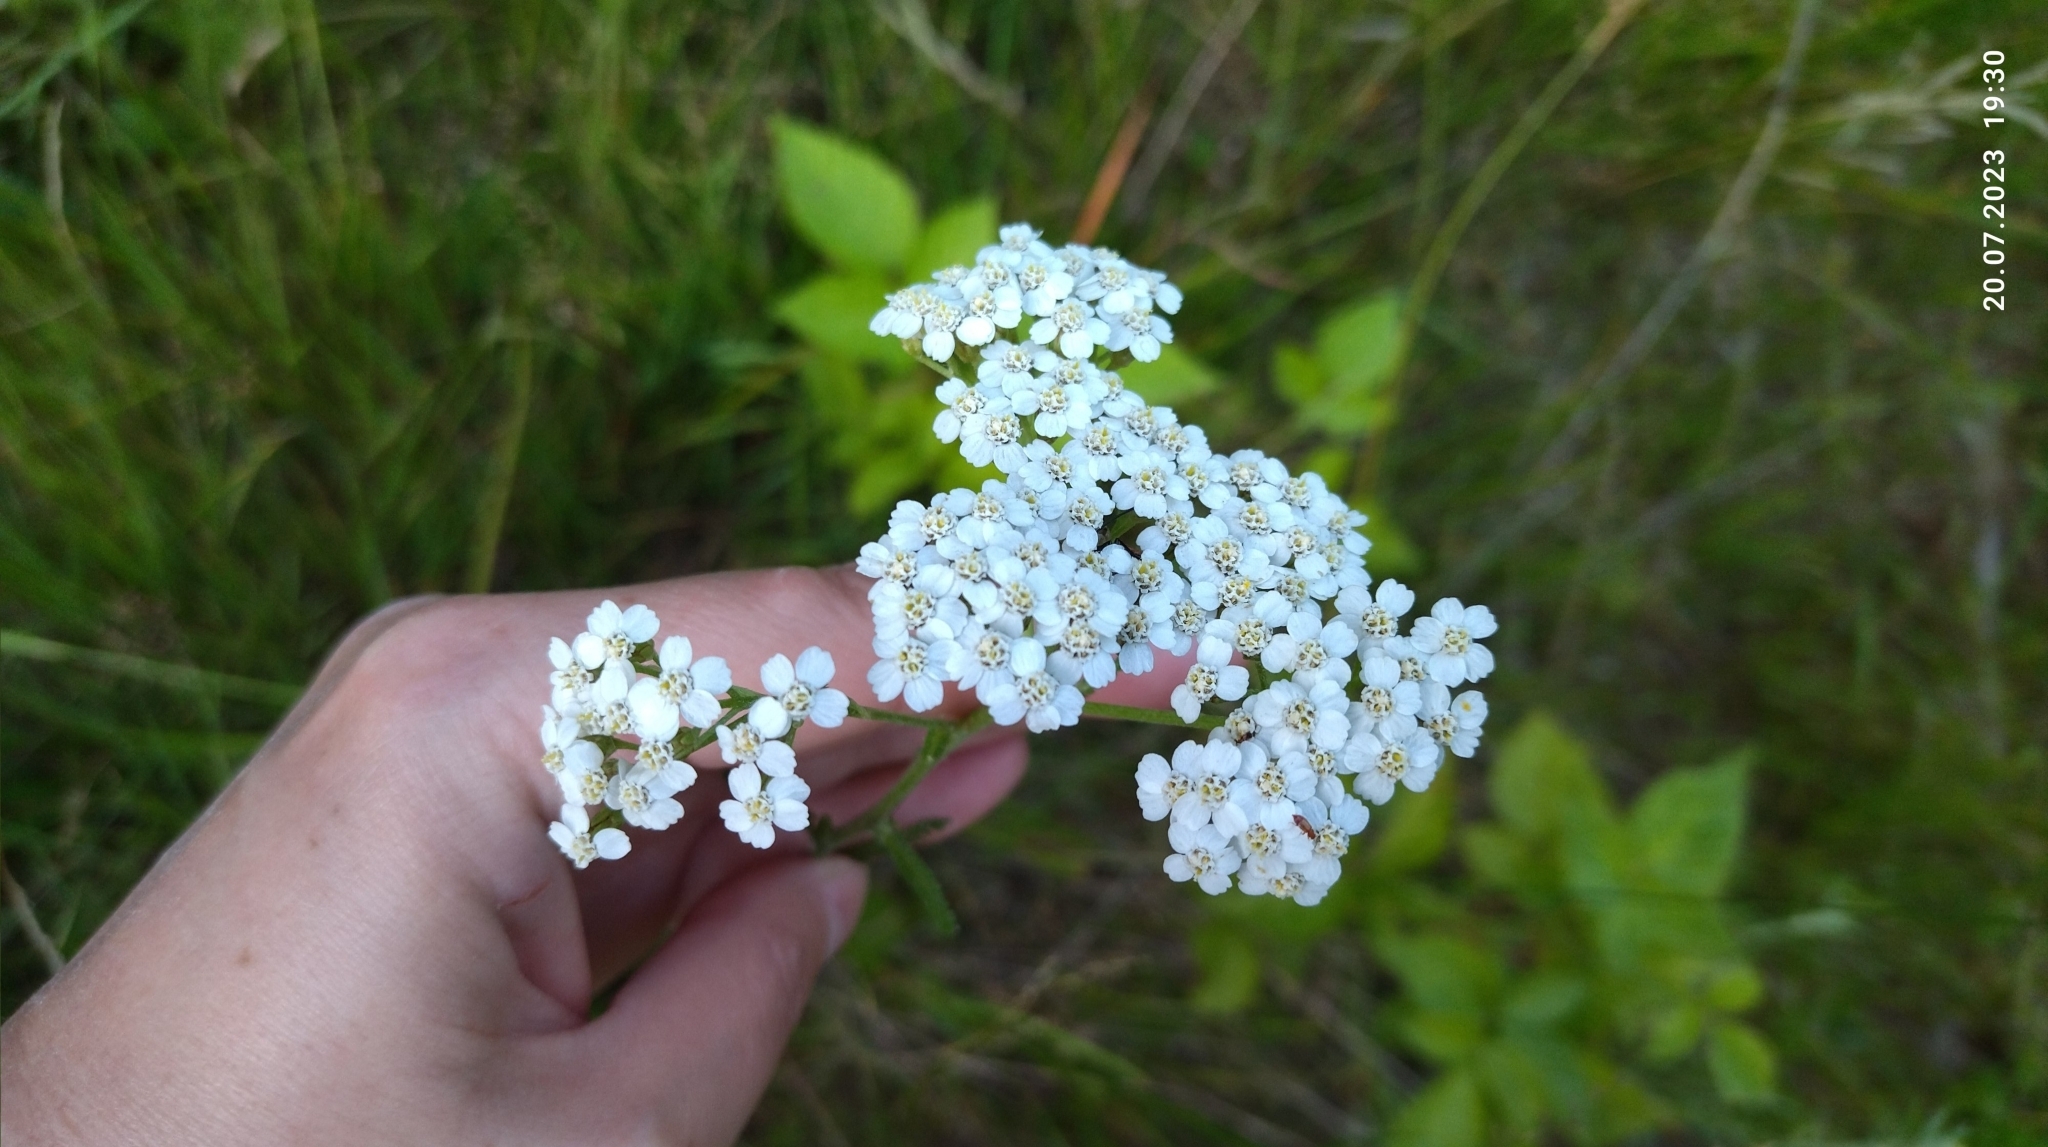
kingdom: Plantae
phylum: Tracheophyta
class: Magnoliopsida
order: Asterales
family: Asteraceae
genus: Achillea
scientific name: Achillea millefolium
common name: Yarrow
